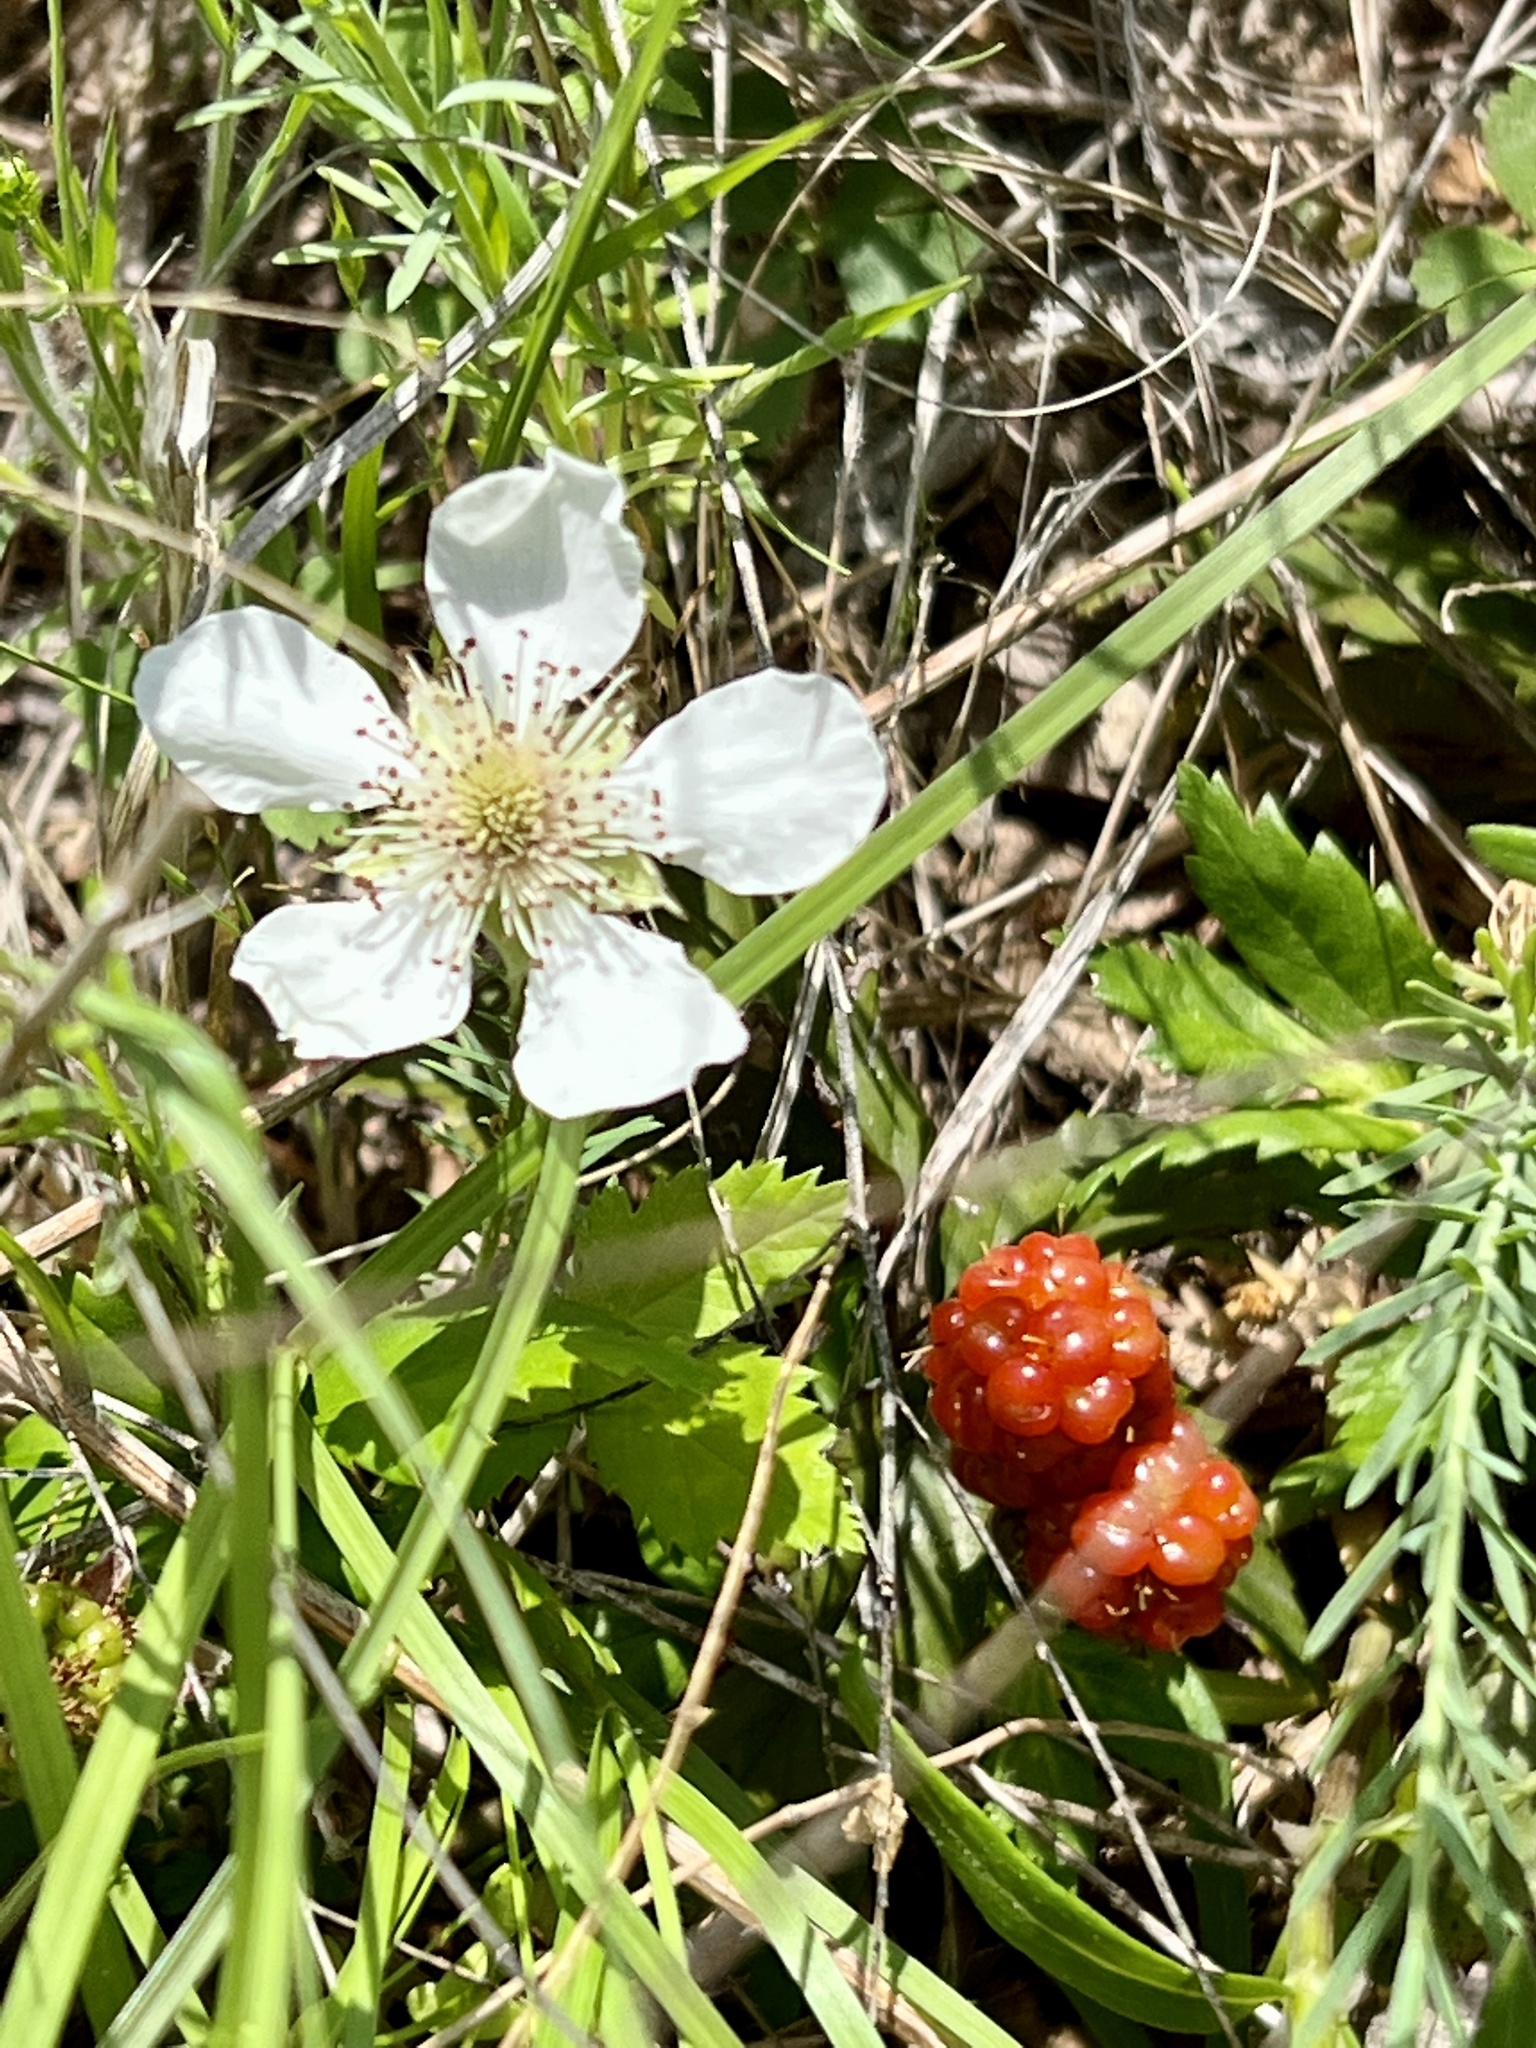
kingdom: Plantae
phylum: Tracheophyta
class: Magnoliopsida
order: Rosales
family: Rosaceae
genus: Rubus
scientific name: Rubus trivialis
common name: Southern dewberry
